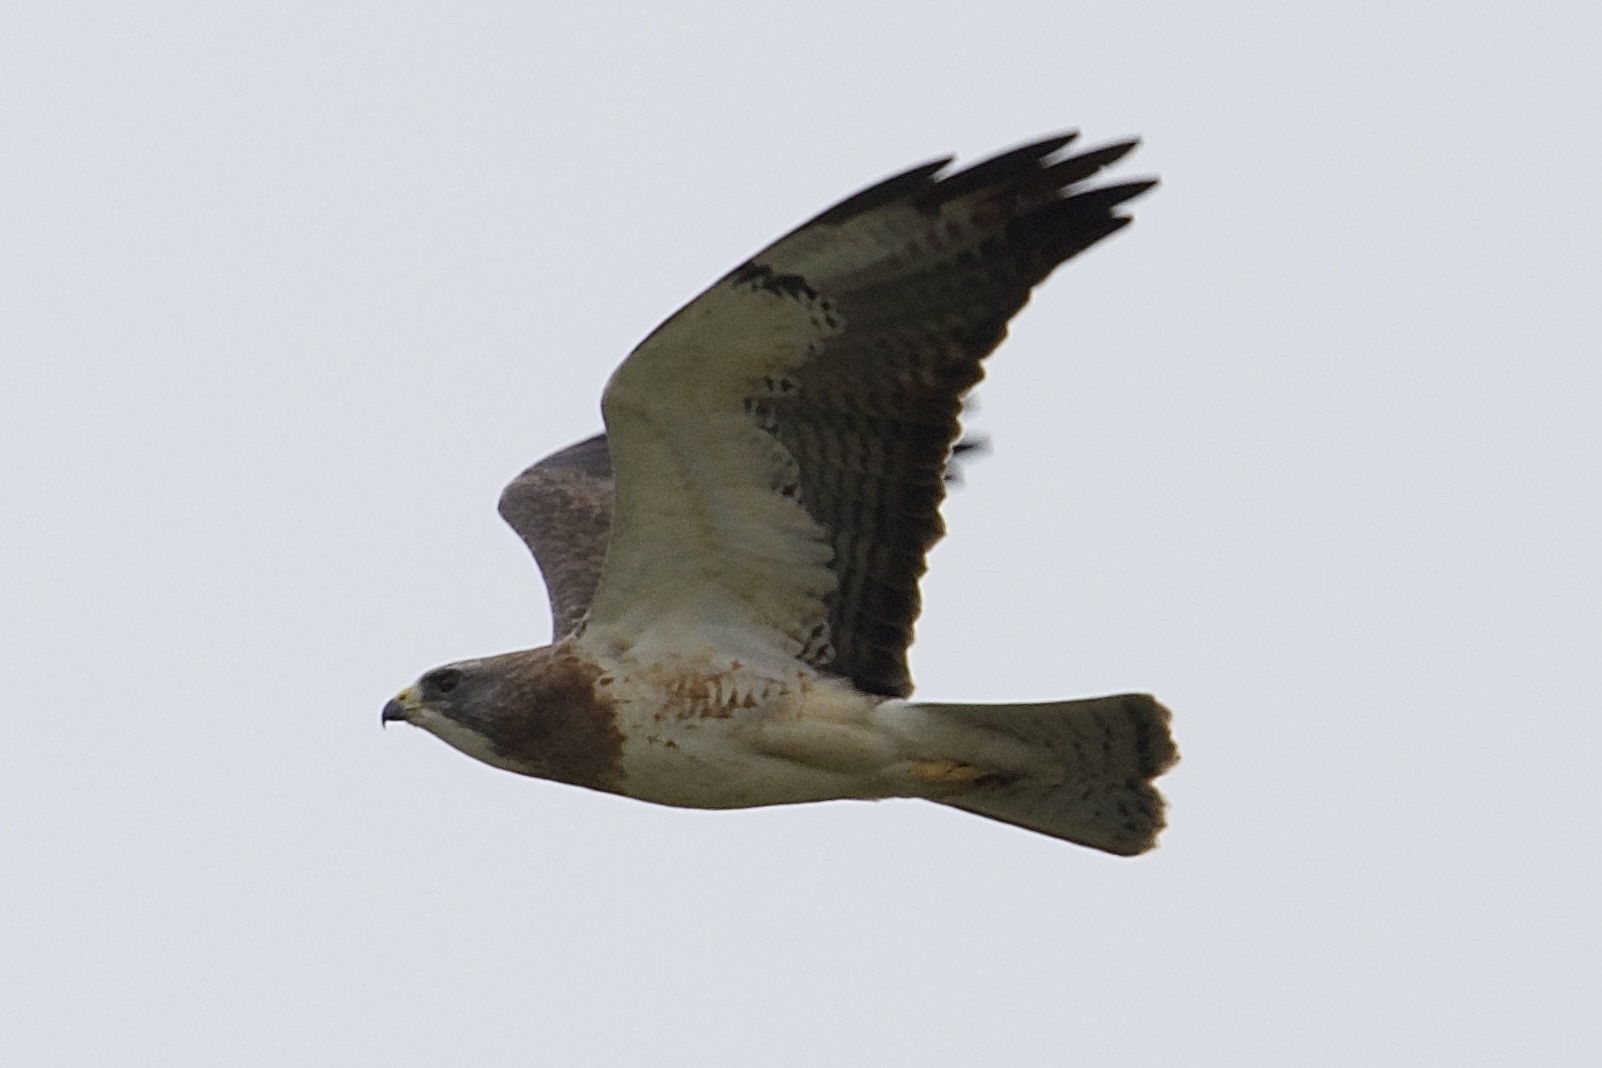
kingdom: Animalia
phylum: Chordata
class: Aves
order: Accipitriformes
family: Accipitridae
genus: Buteo
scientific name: Buteo swainsoni
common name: Swainson's hawk
